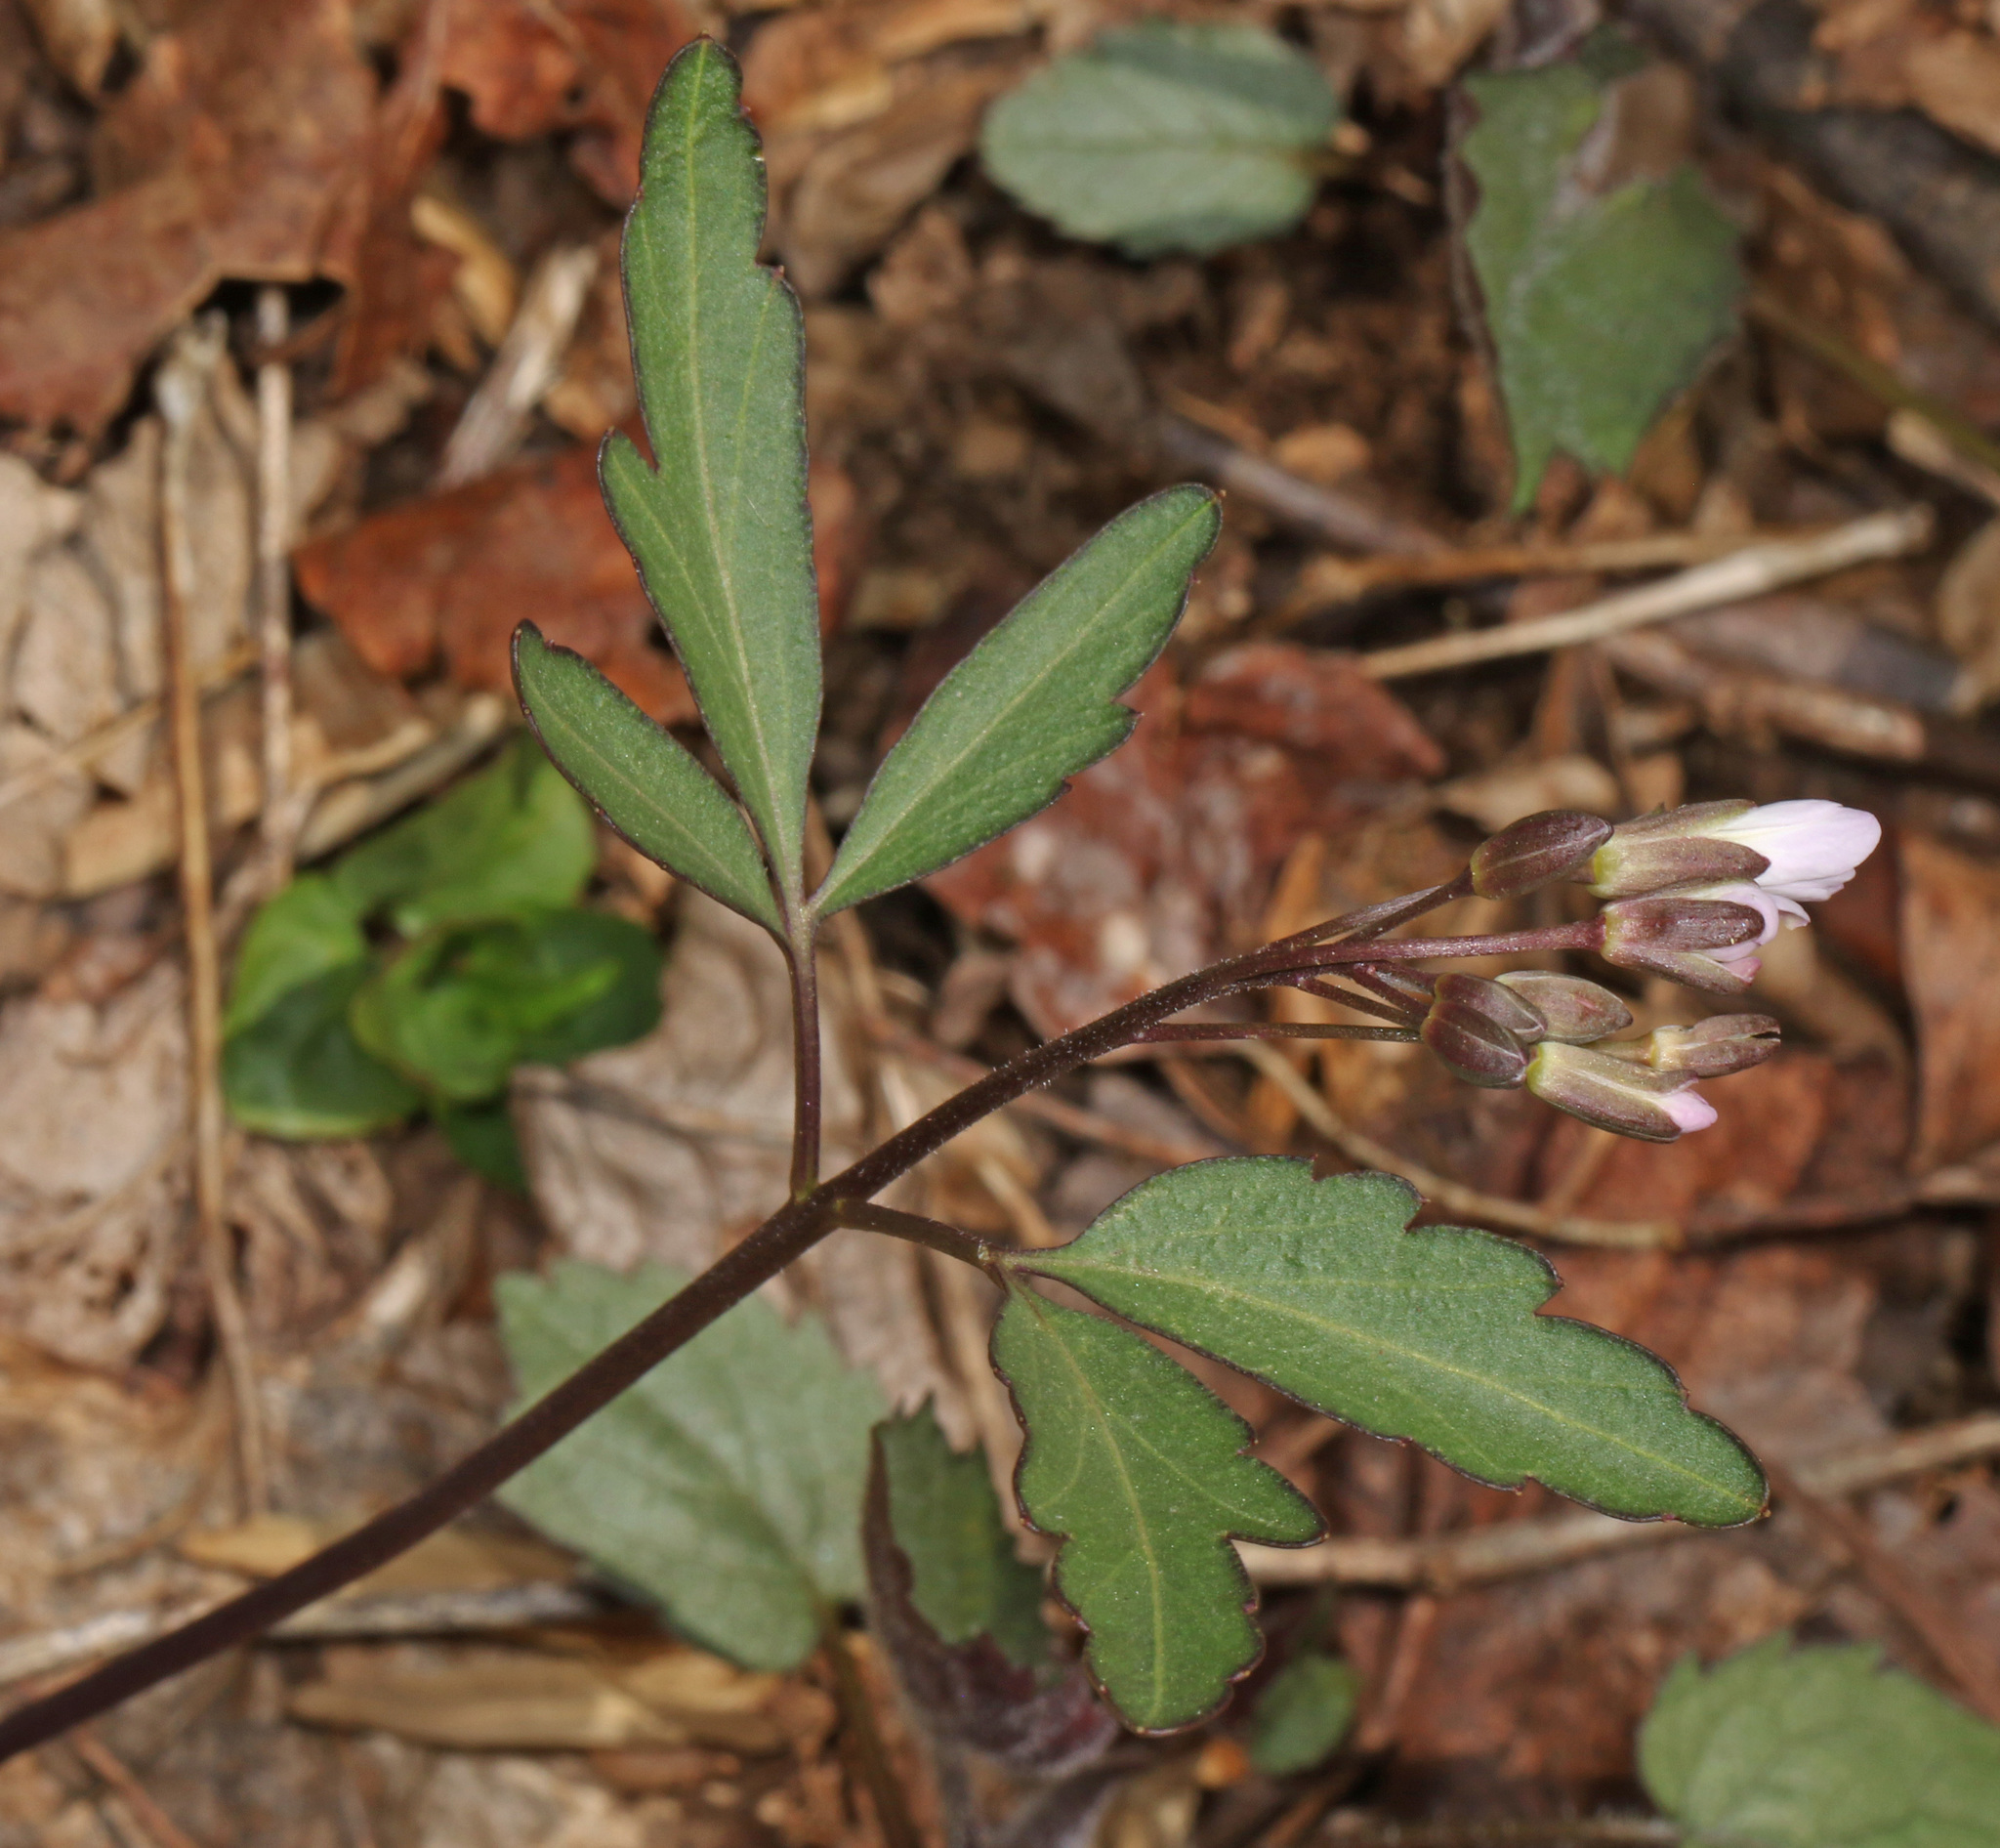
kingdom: Plantae
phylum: Tracheophyta
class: Magnoliopsida
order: Brassicales
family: Brassicaceae
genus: Cardamine
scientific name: Cardamine angustata
